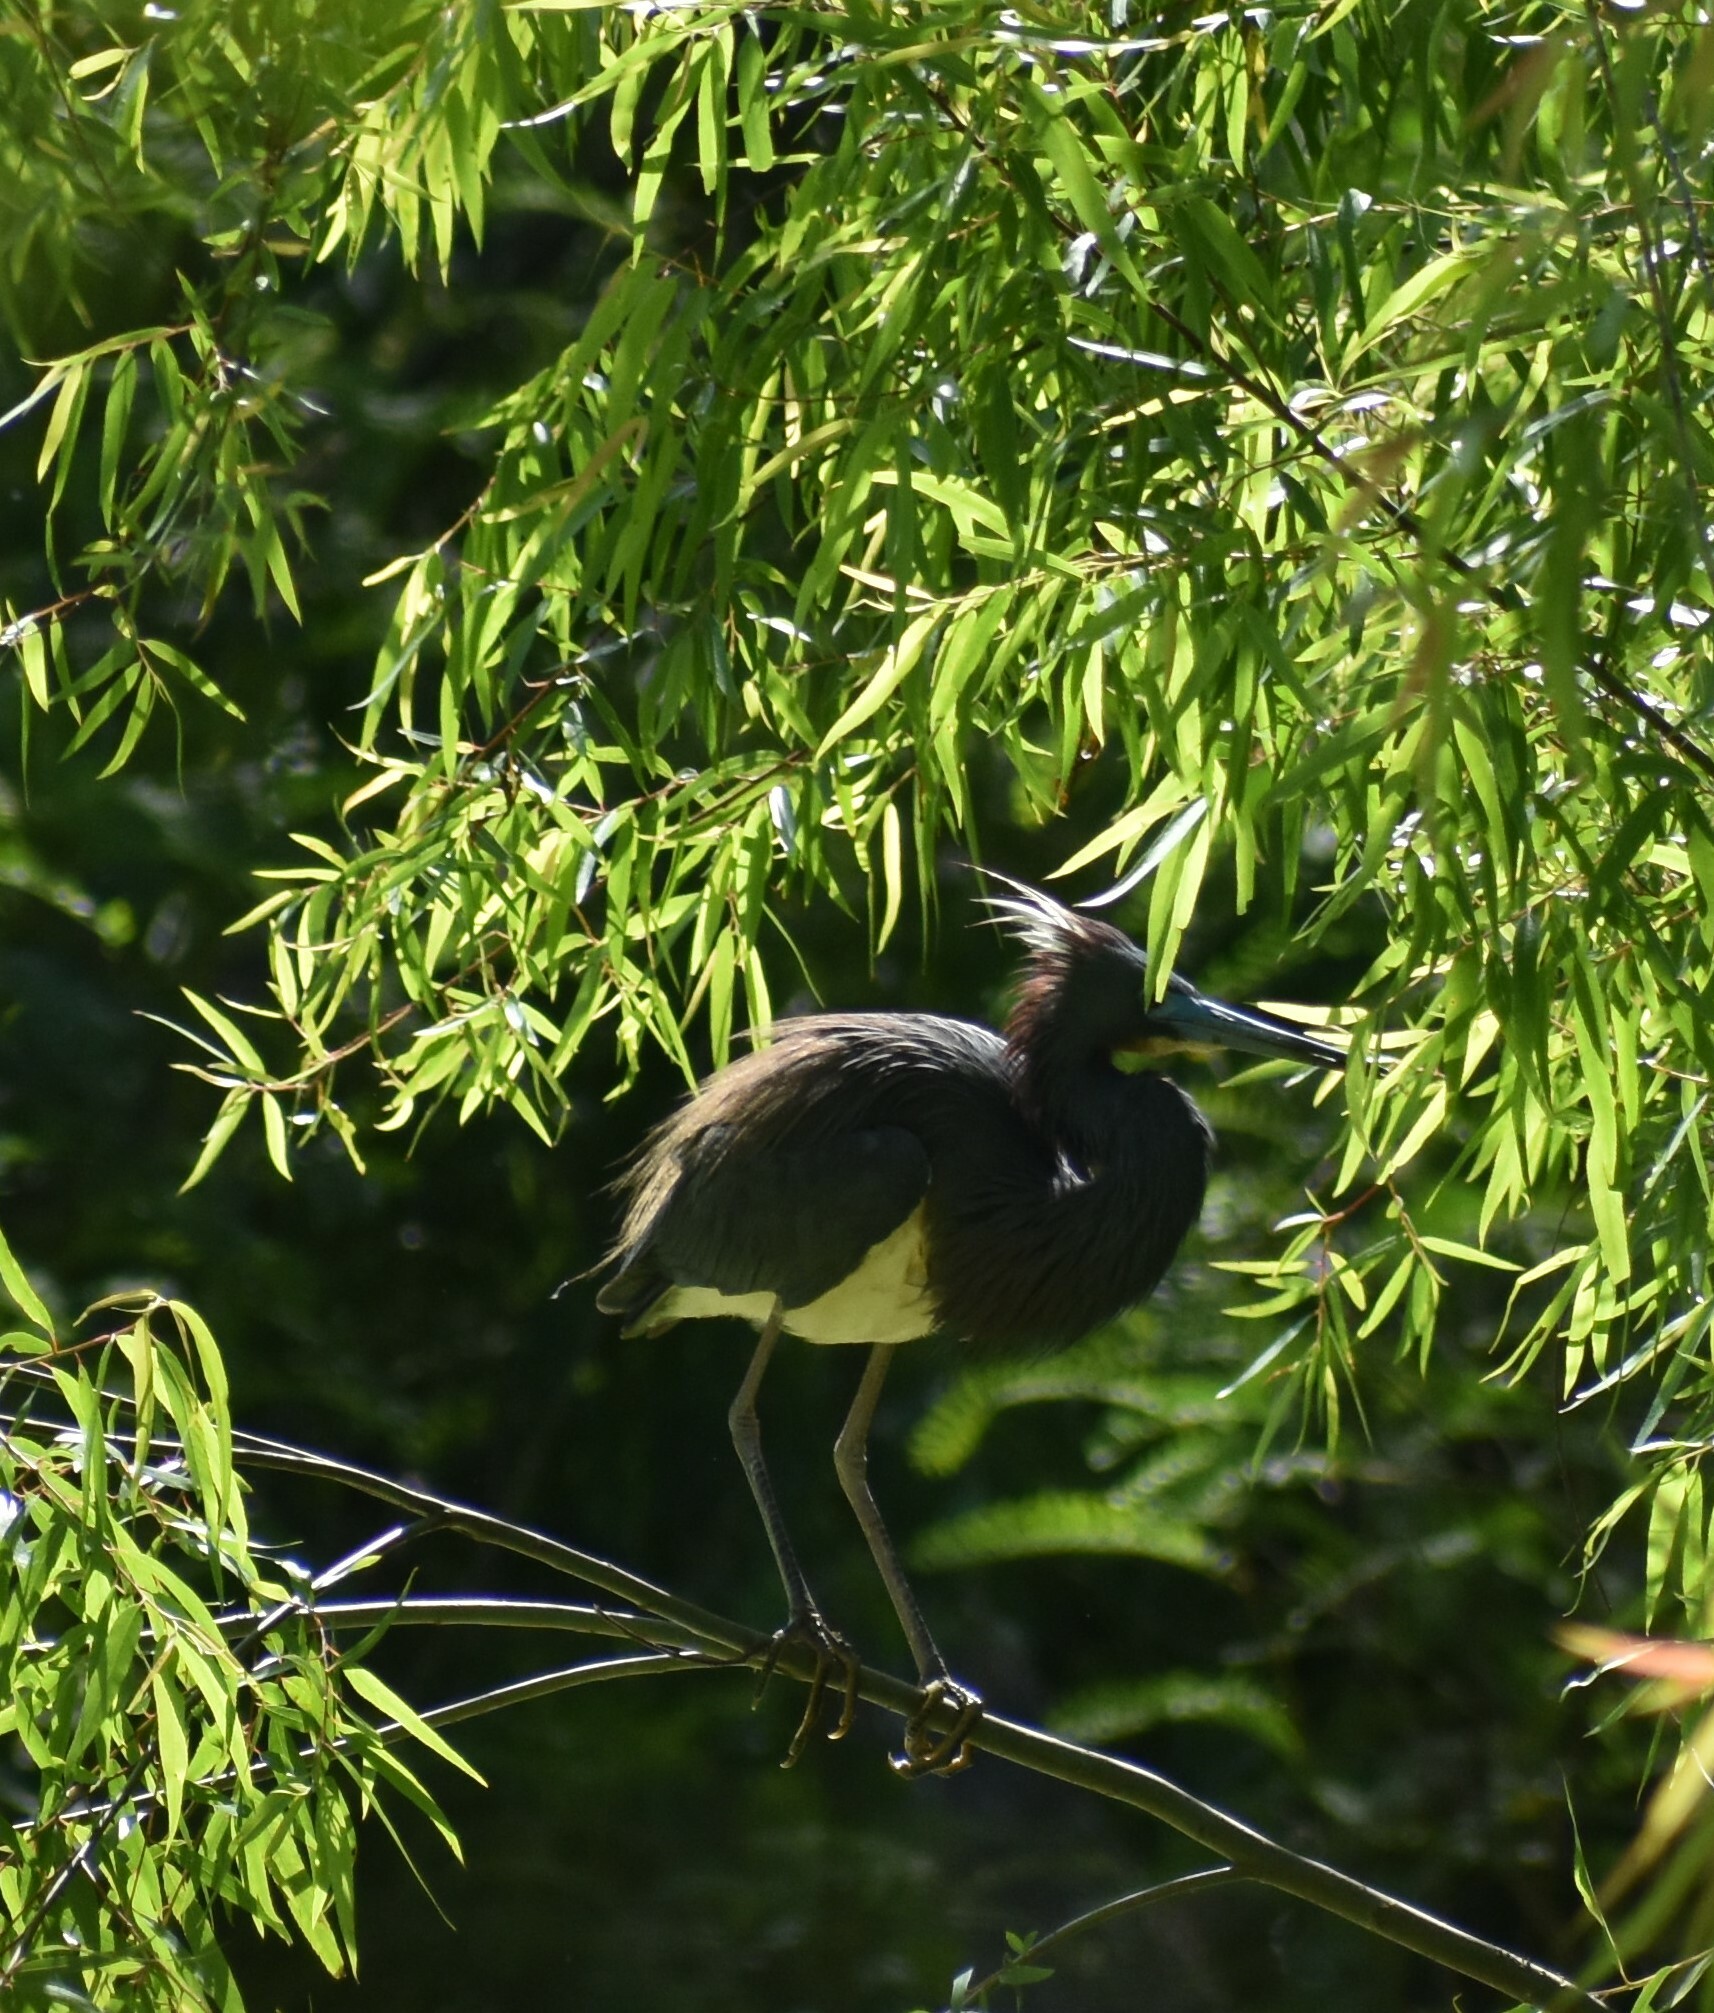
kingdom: Animalia
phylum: Chordata
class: Aves
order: Pelecaniformes
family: Ardeidae
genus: Egretta
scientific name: Egretta tricolor
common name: Tricolored heron
